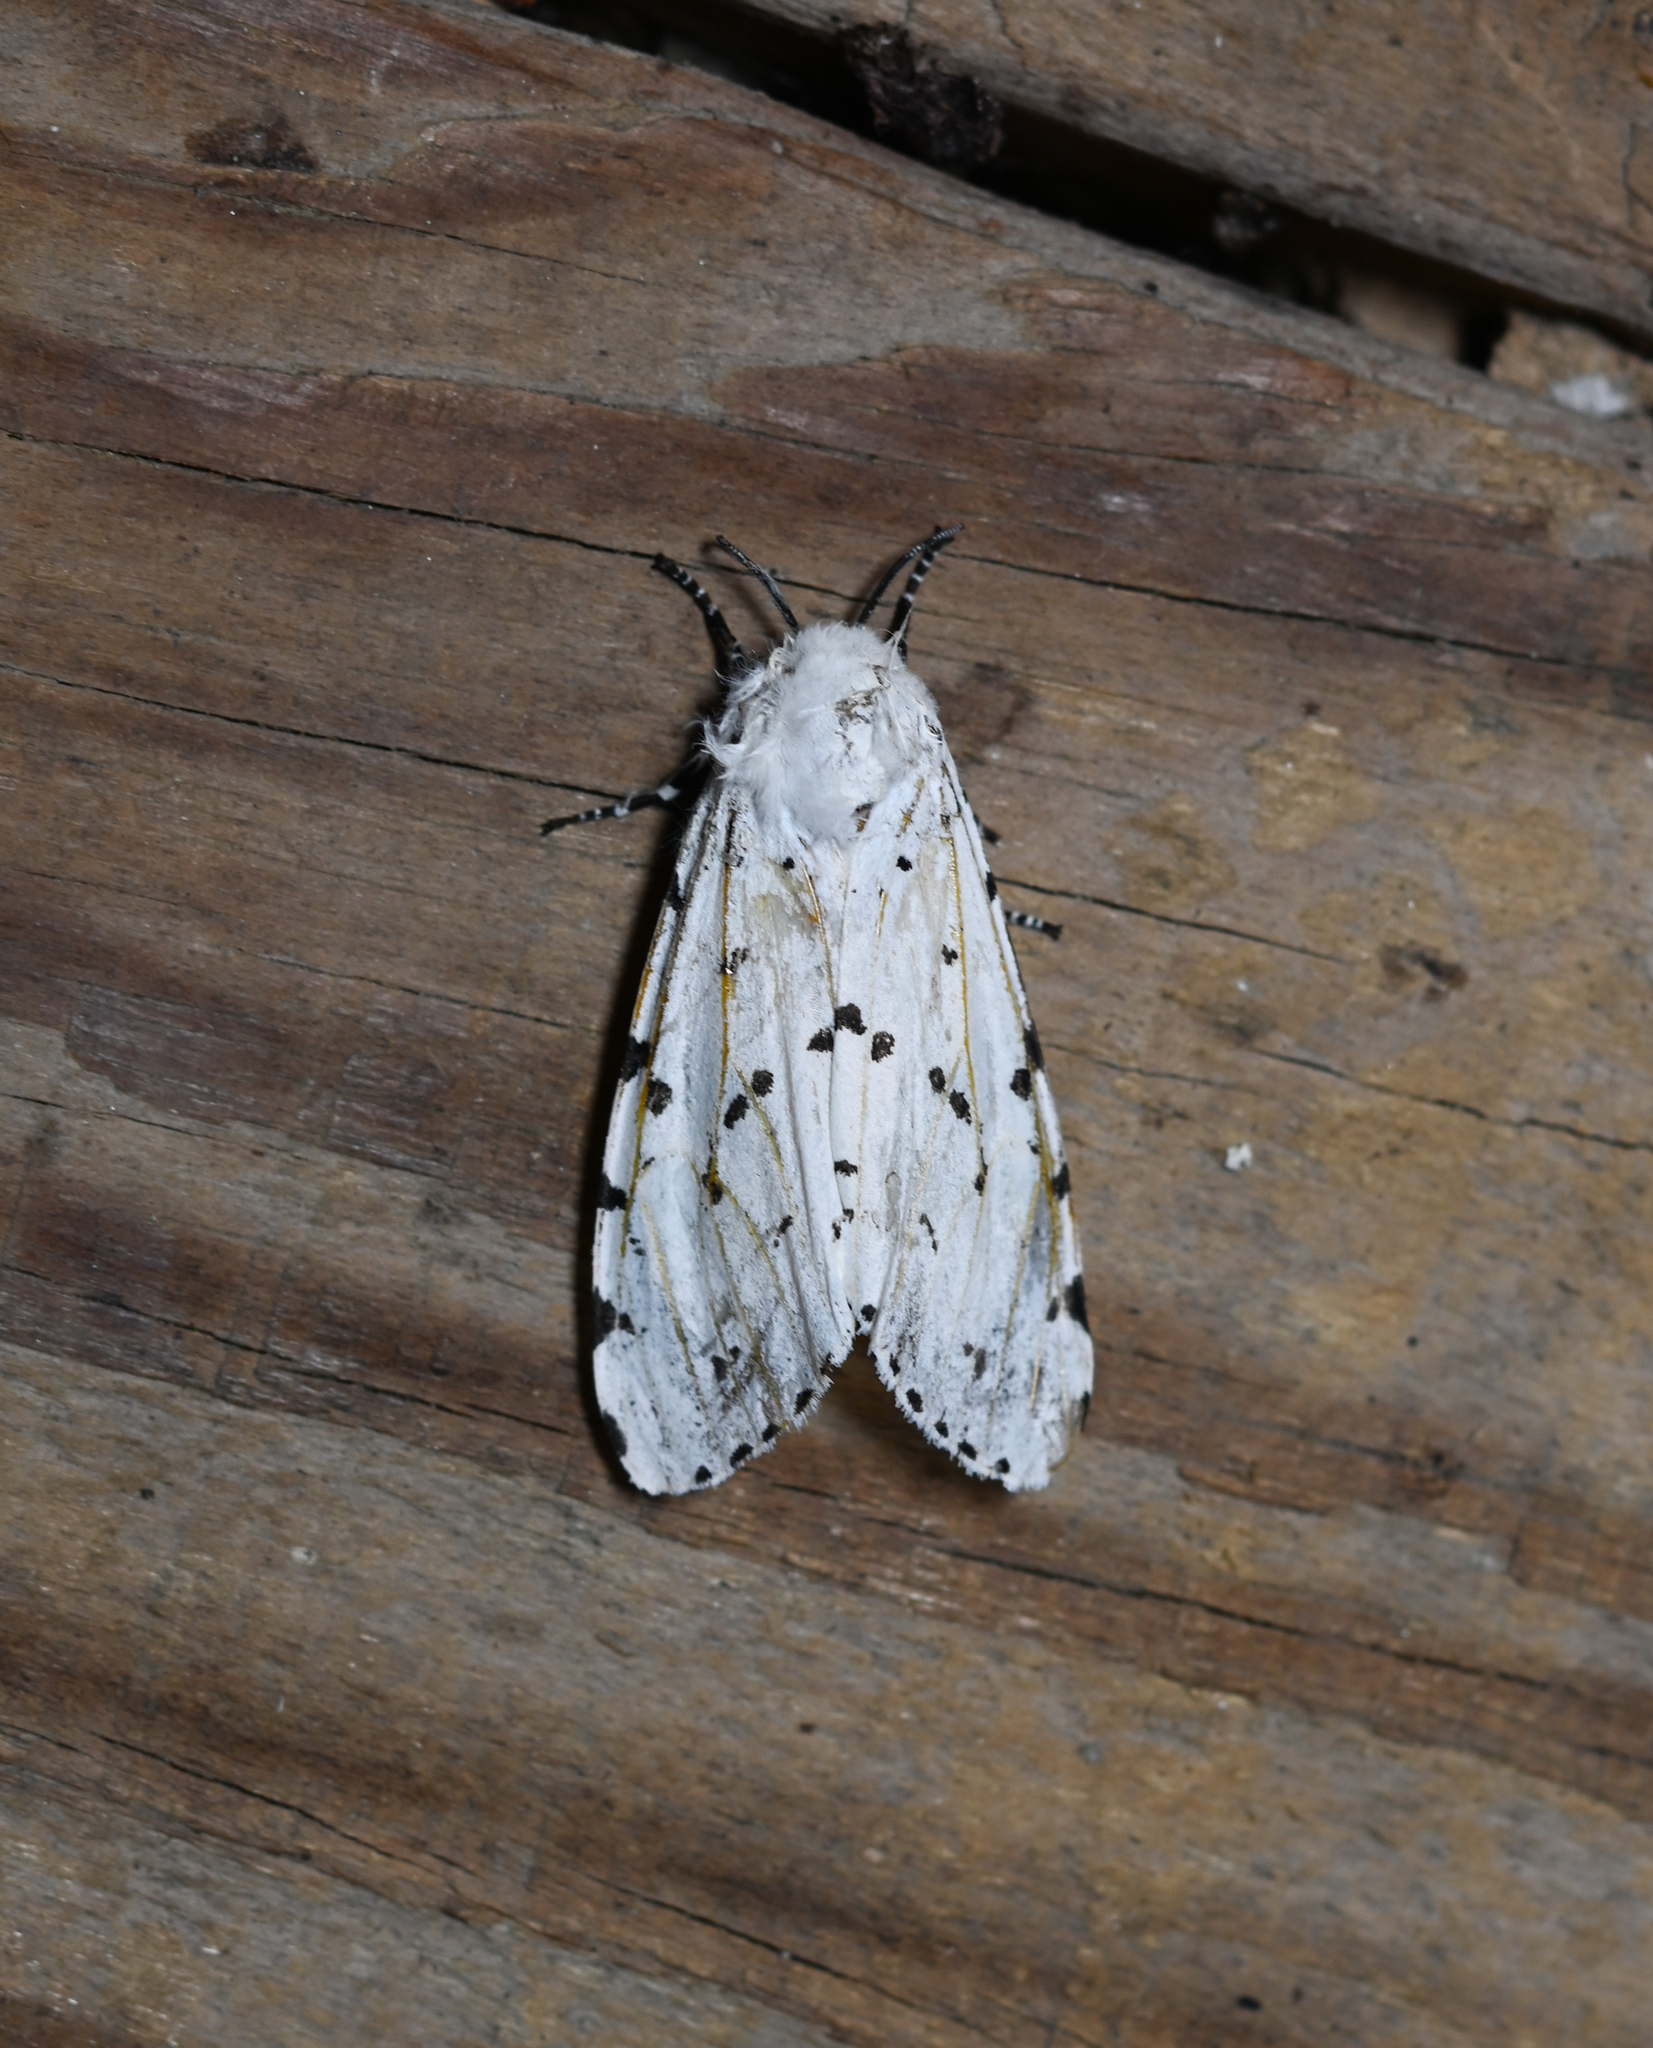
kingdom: Animalia
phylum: Arthropoda
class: Insecta
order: Lepidoptera
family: Erebidae
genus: Estigmene
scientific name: Estigmene acrea
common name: Salt marsh moth
